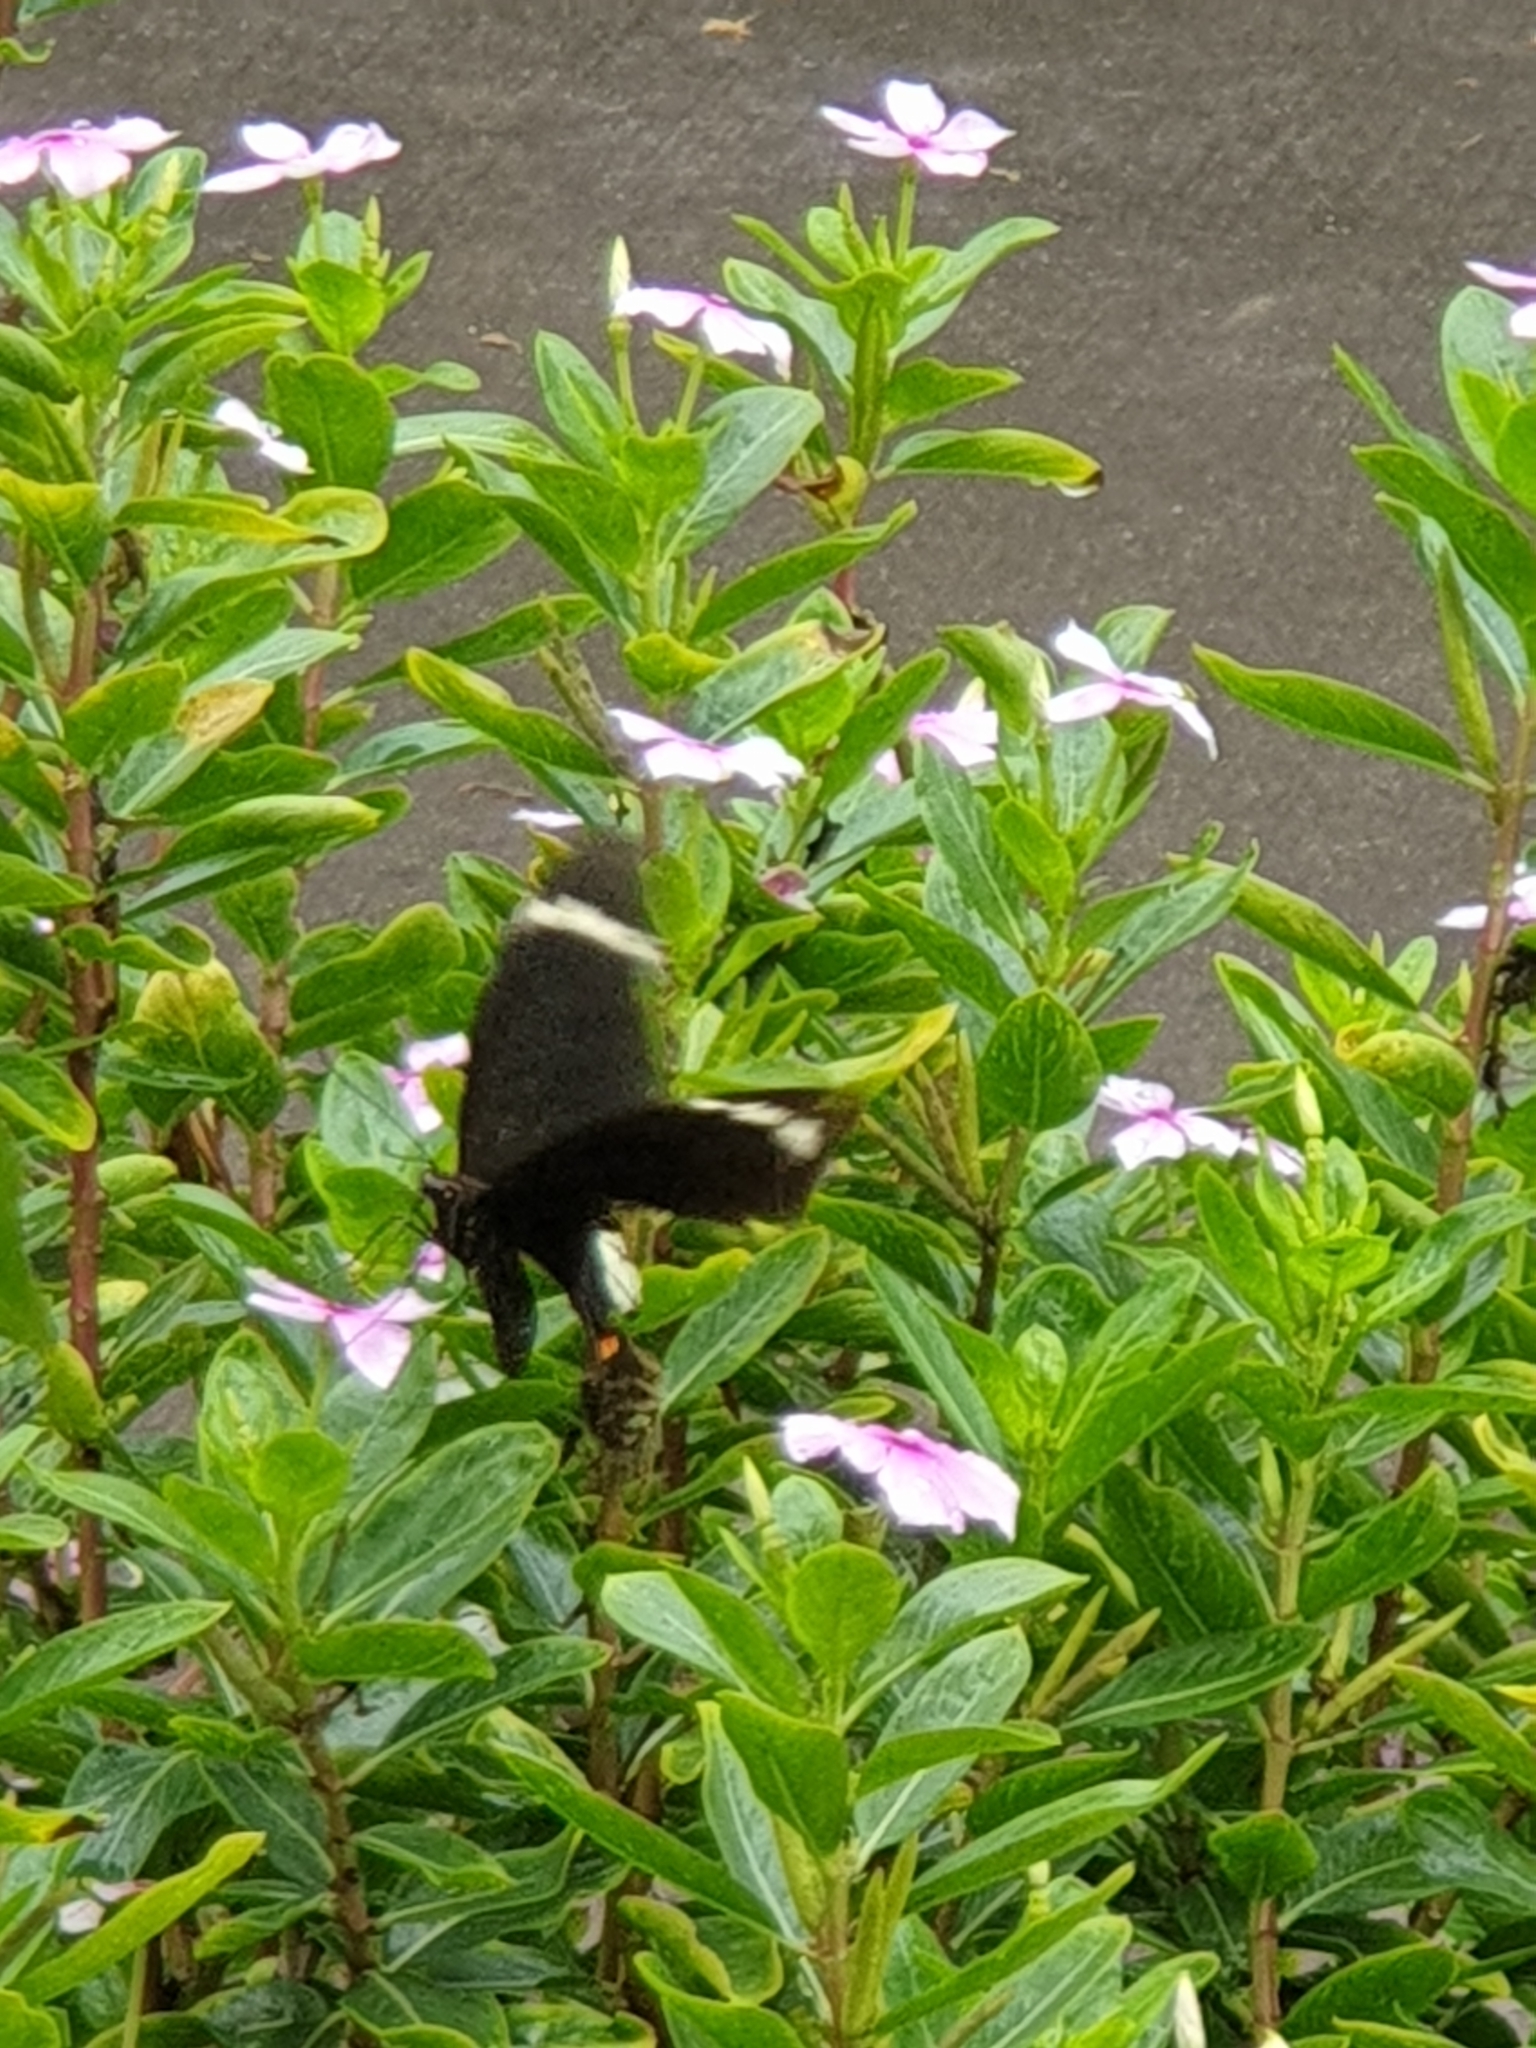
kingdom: Animalia
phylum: Arthropoda
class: Insecta
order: Lepidoptera
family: Papilionidae
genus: Papilio
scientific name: Papilio aegeus
